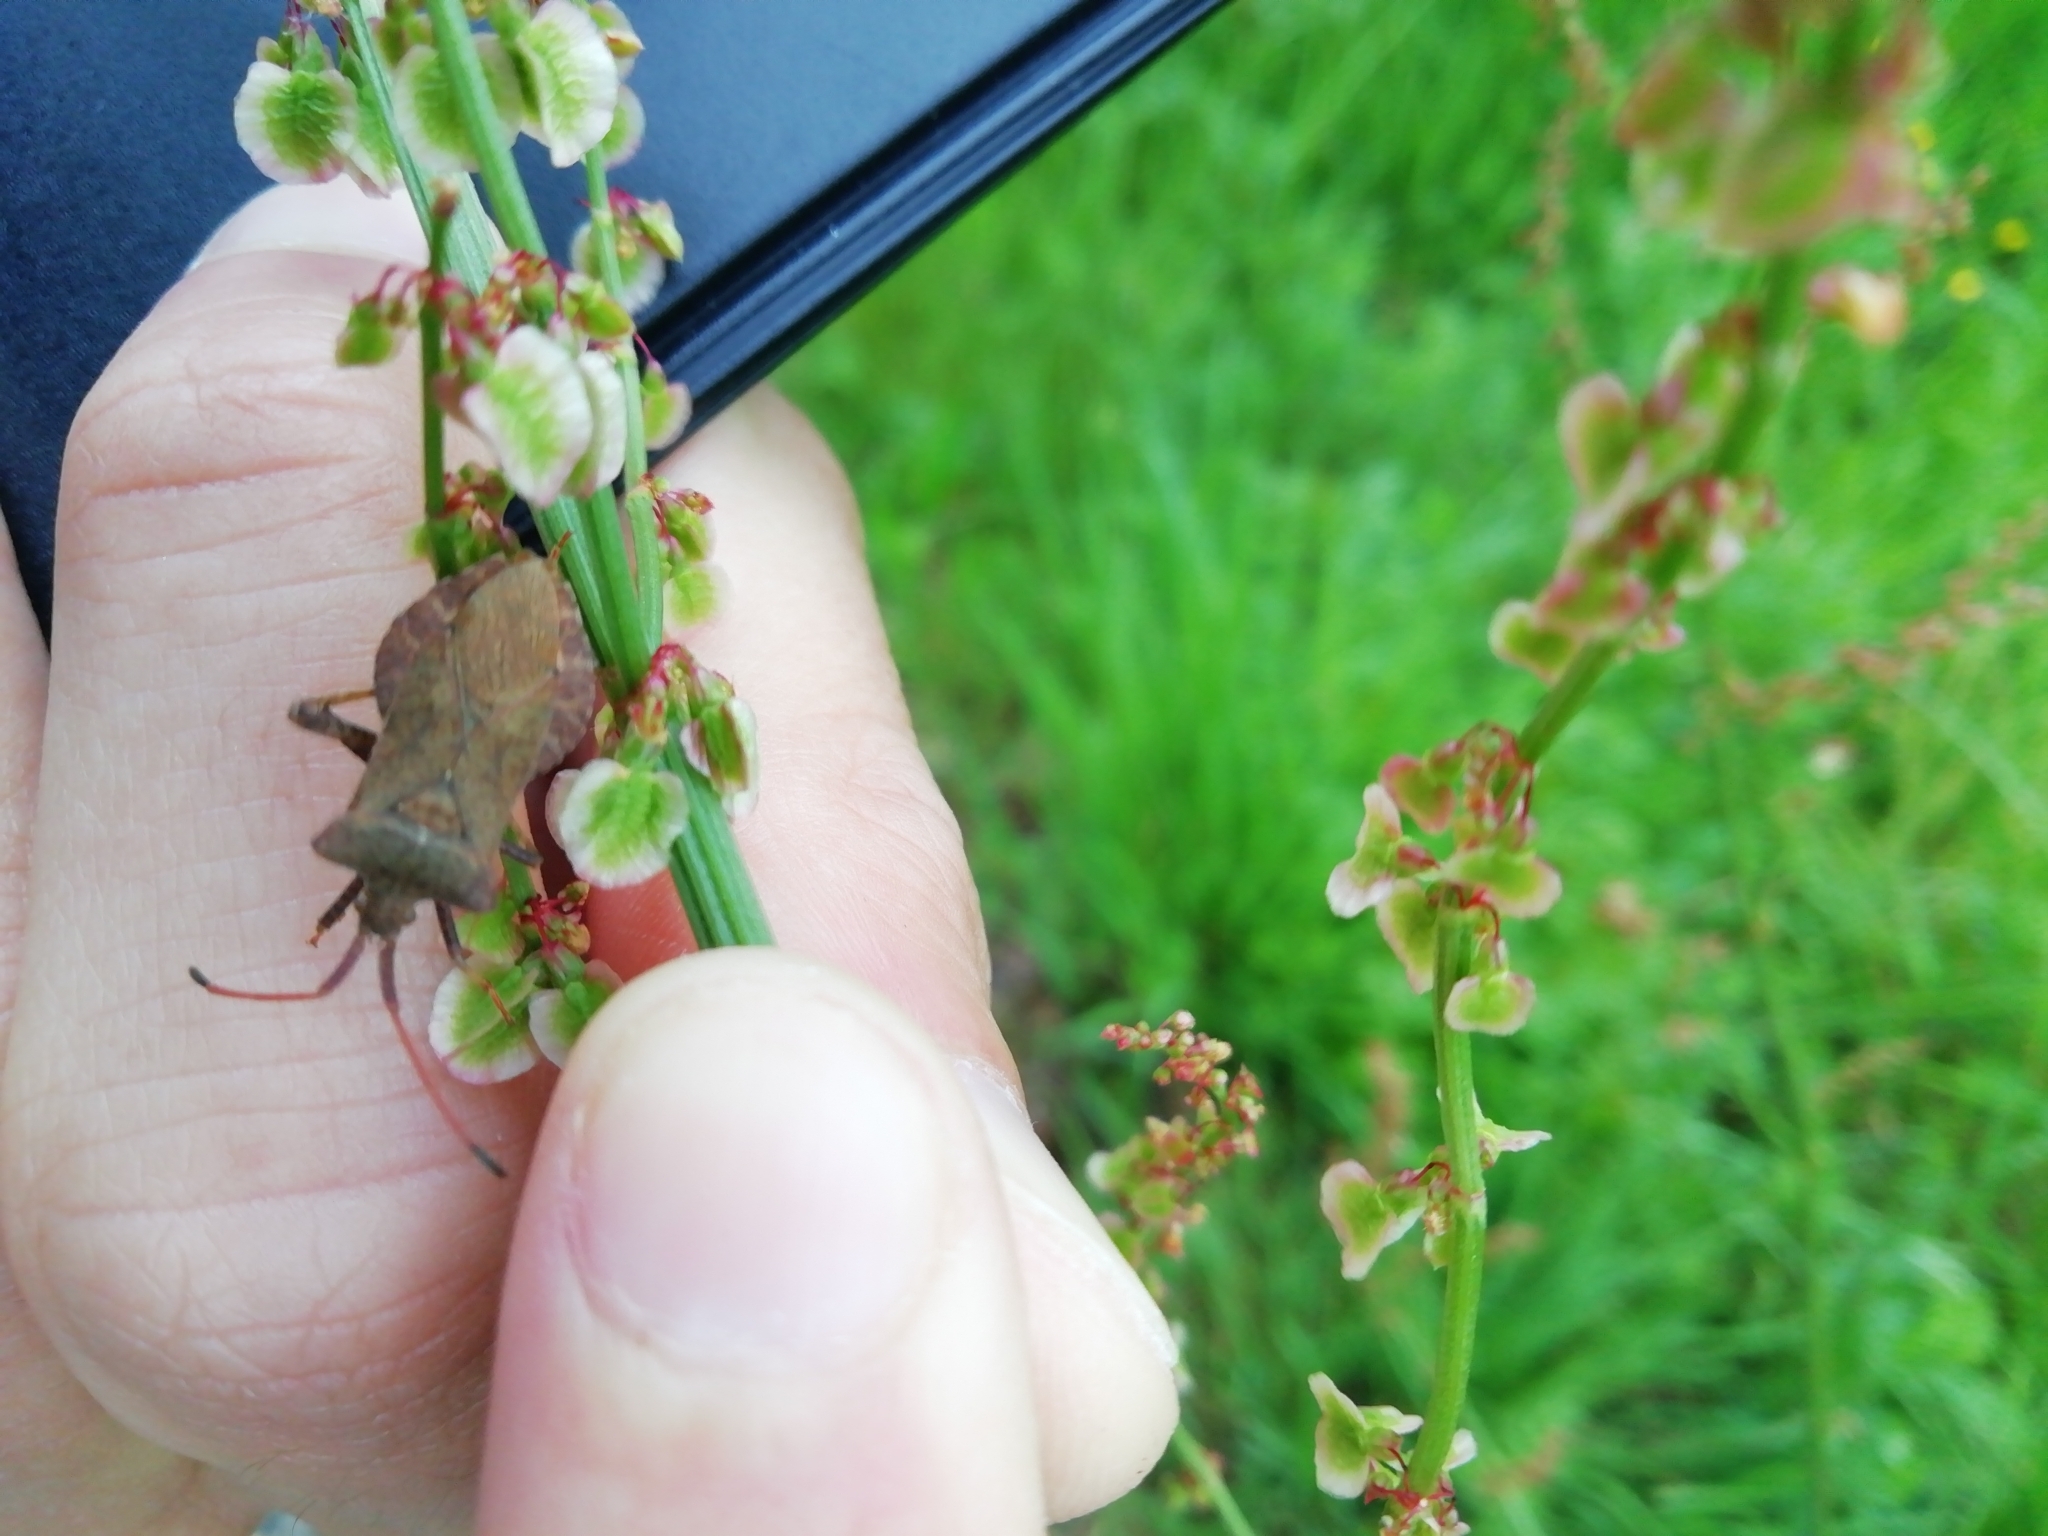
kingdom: Animalia
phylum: Arthropoda
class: Insecta
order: Hemiptera
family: Coreidae
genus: Coreus
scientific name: Coreus marginatus
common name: Dock bug
